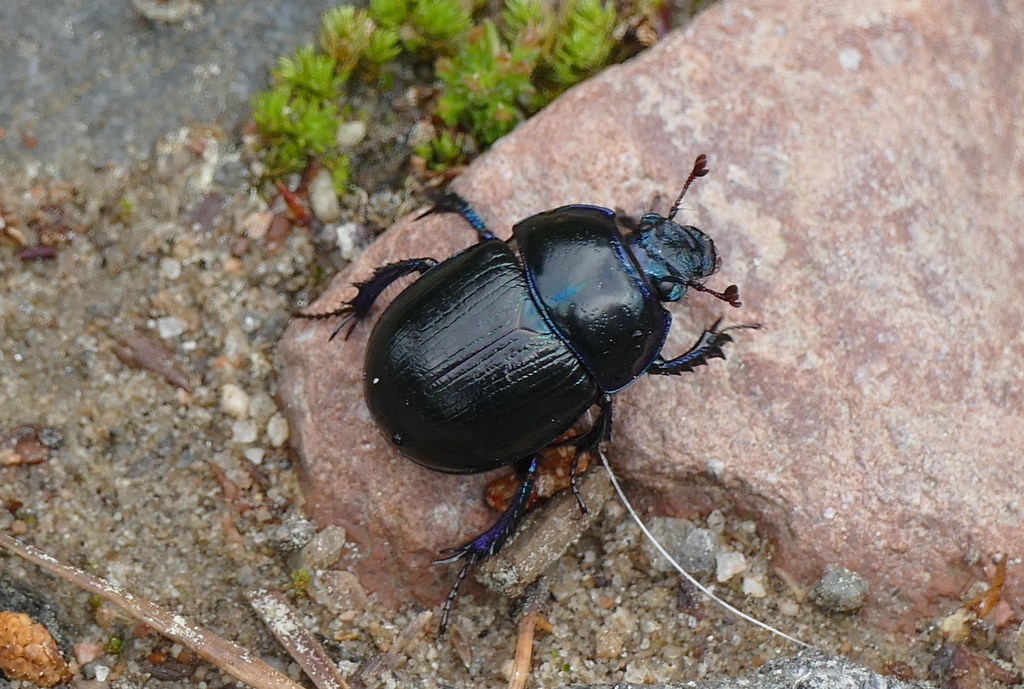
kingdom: Animalia
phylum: Arthropoda
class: Insecta
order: Coleoptera
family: Geotrupidae
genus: Anoplotrupes
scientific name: Anoplotrupes stercorosus
